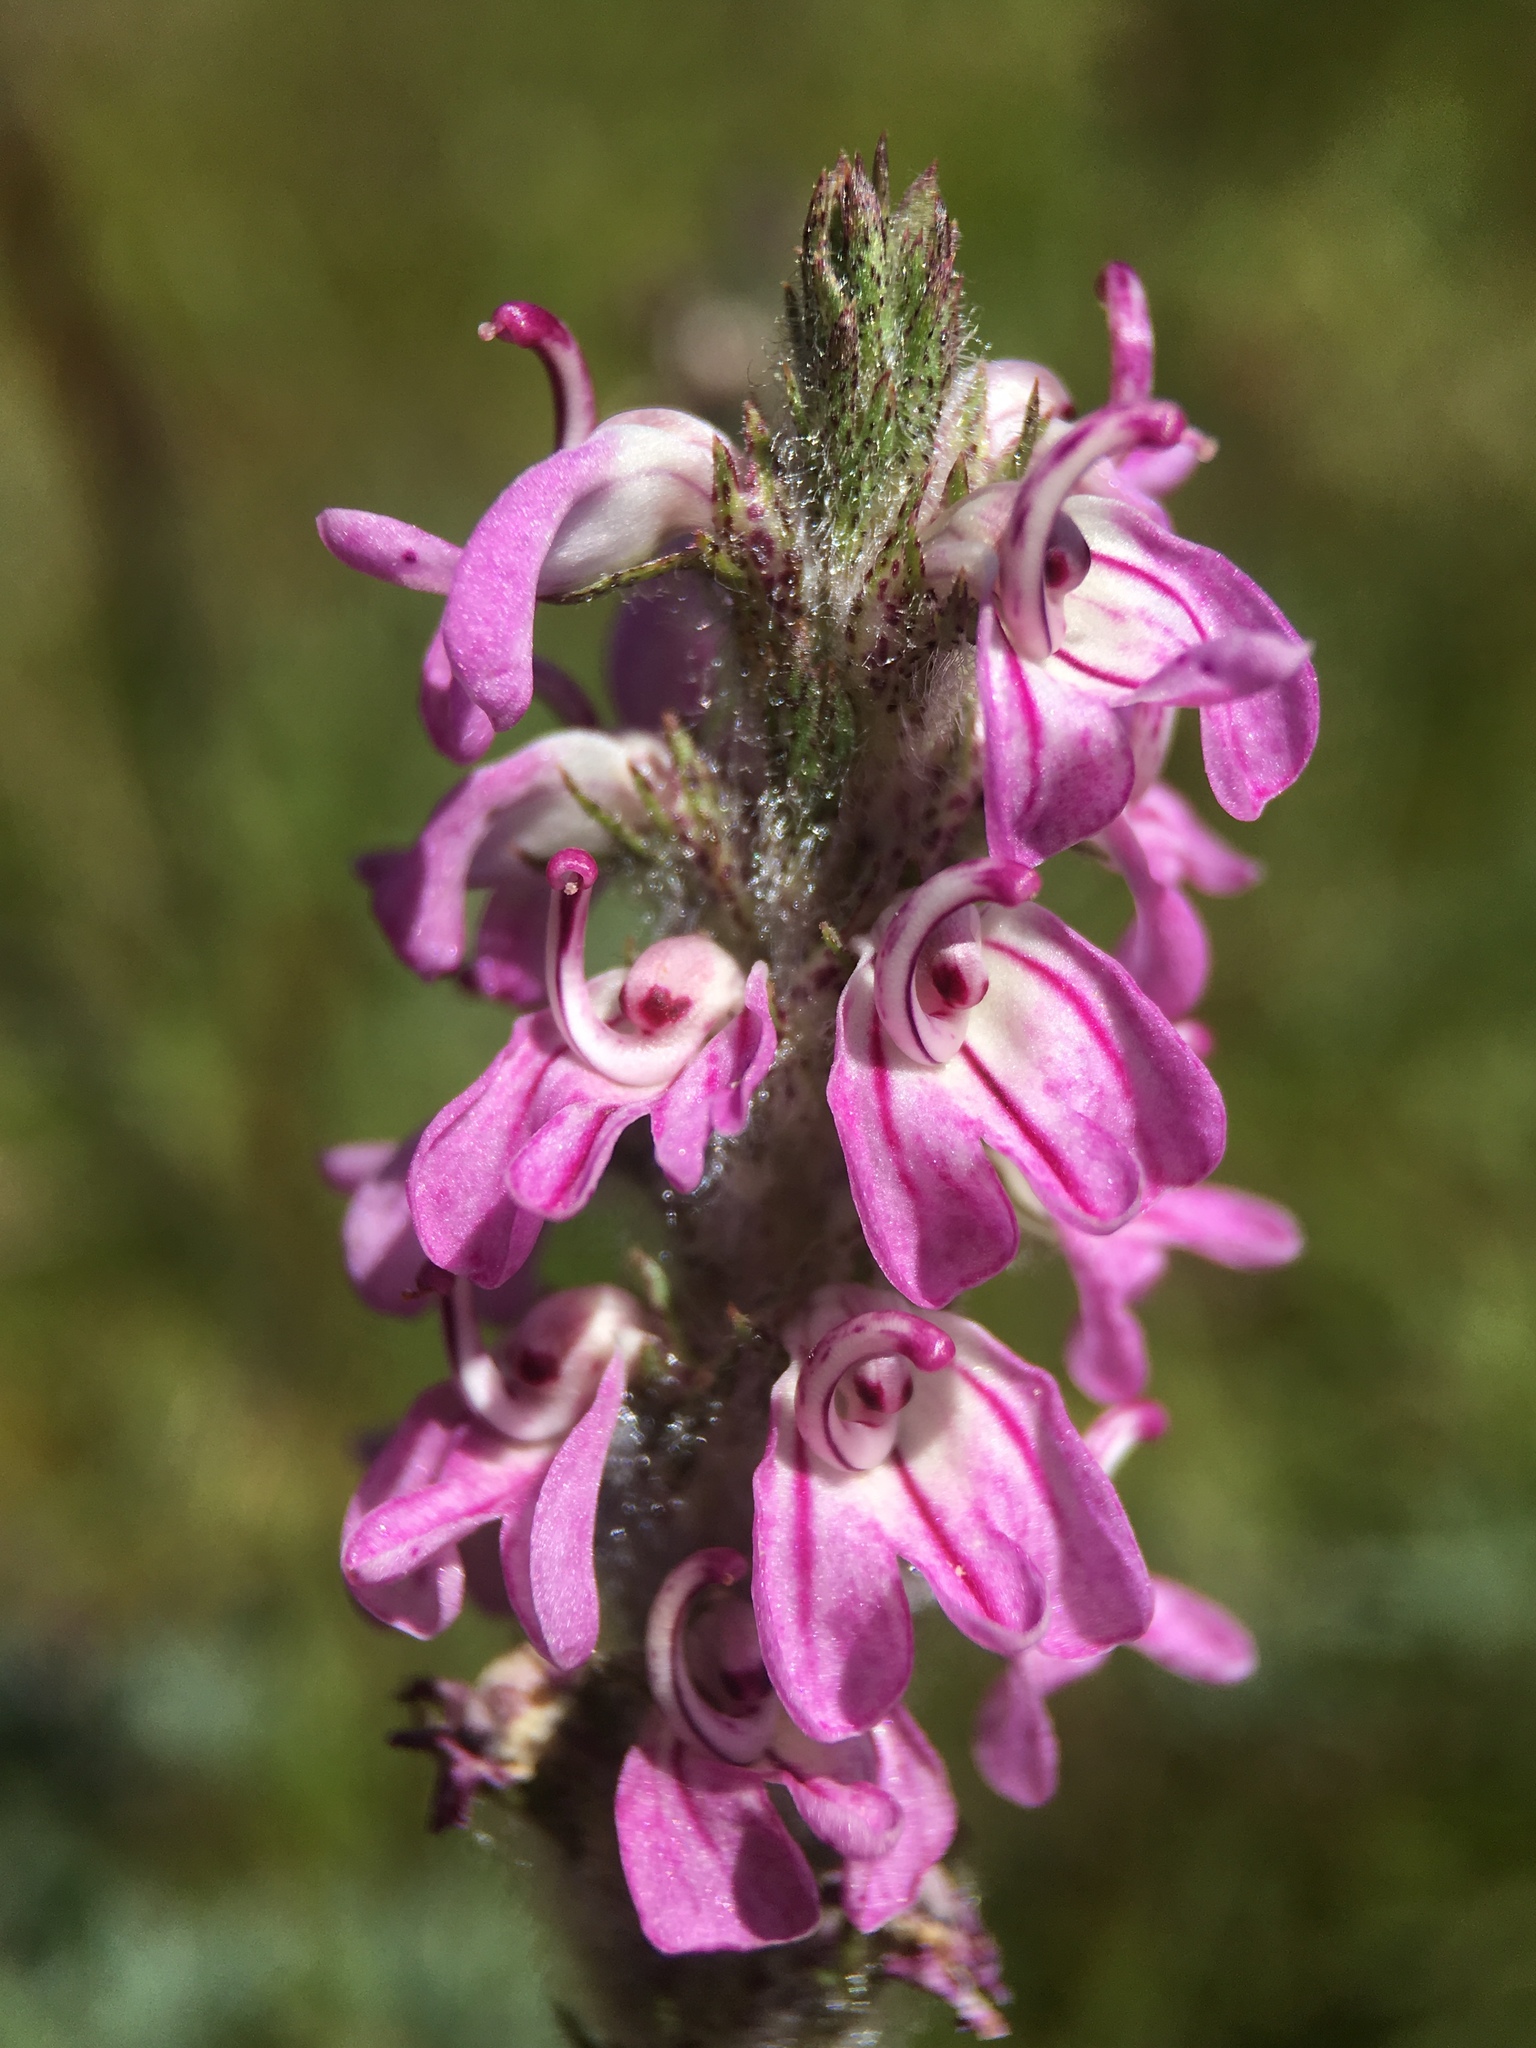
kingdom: Plantae
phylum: Tracheophyta
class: Magnoliopsida
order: Lamiales
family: Orobanchaceae
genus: Pedicularis
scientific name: Pedicularis attollens
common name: Slender pedicularis
